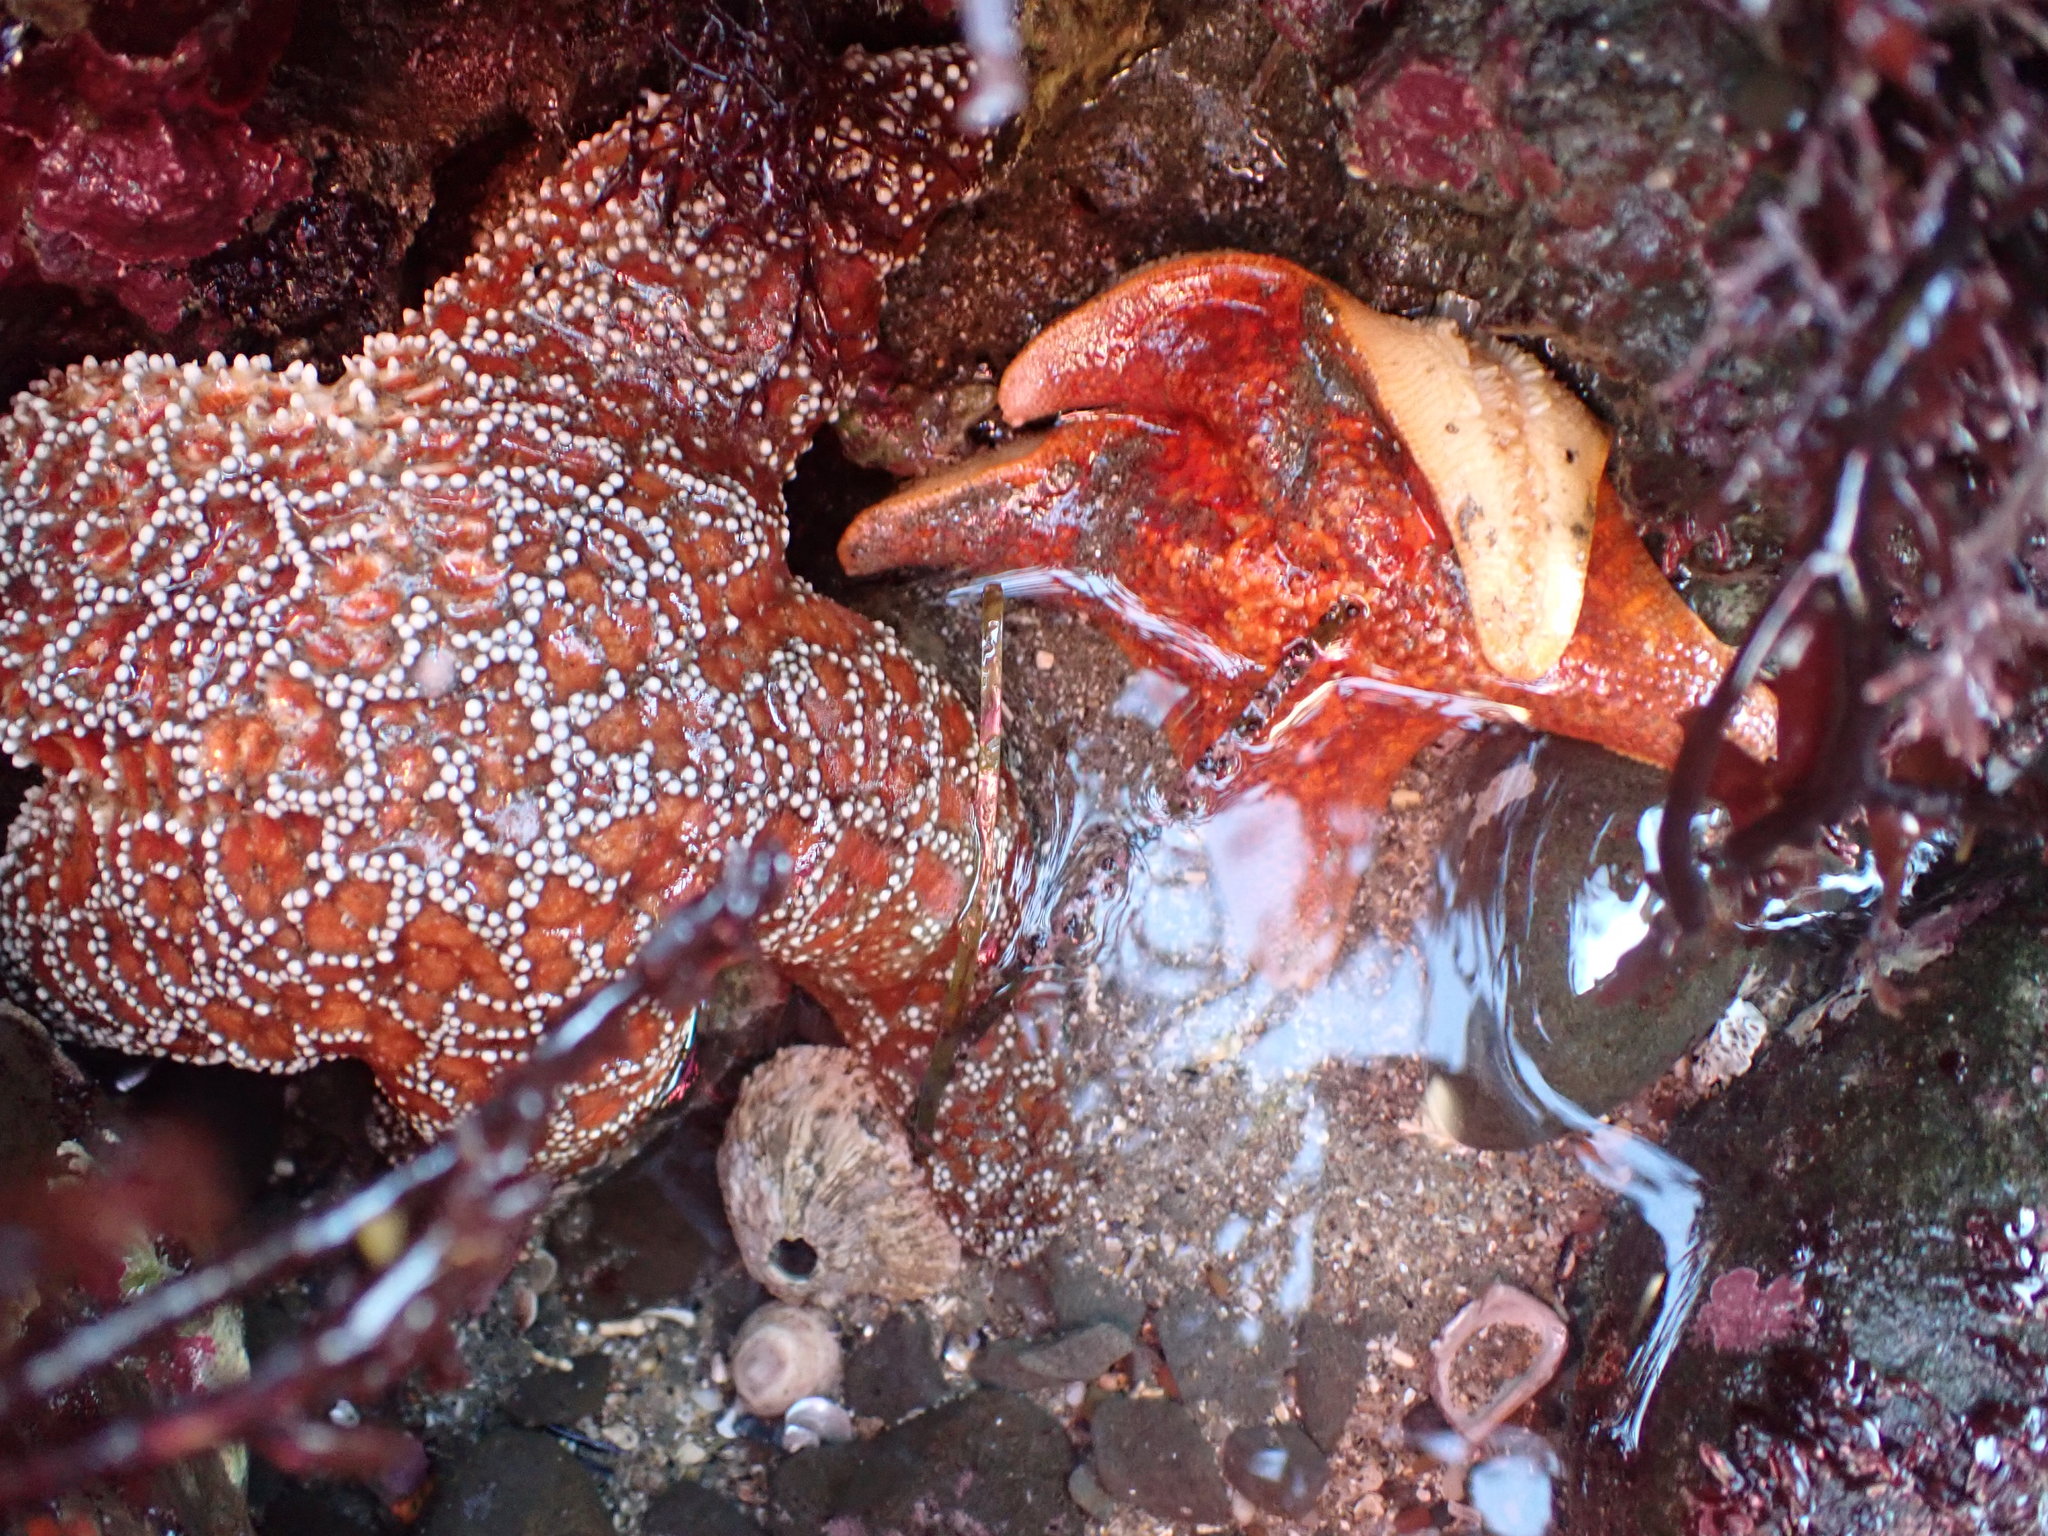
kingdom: Animalia
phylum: Echinodermata
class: Asteroidea
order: Forcipulatida
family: Asteriidae
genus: Pisaster
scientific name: Pisaster ochraceus
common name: Ochre stars
